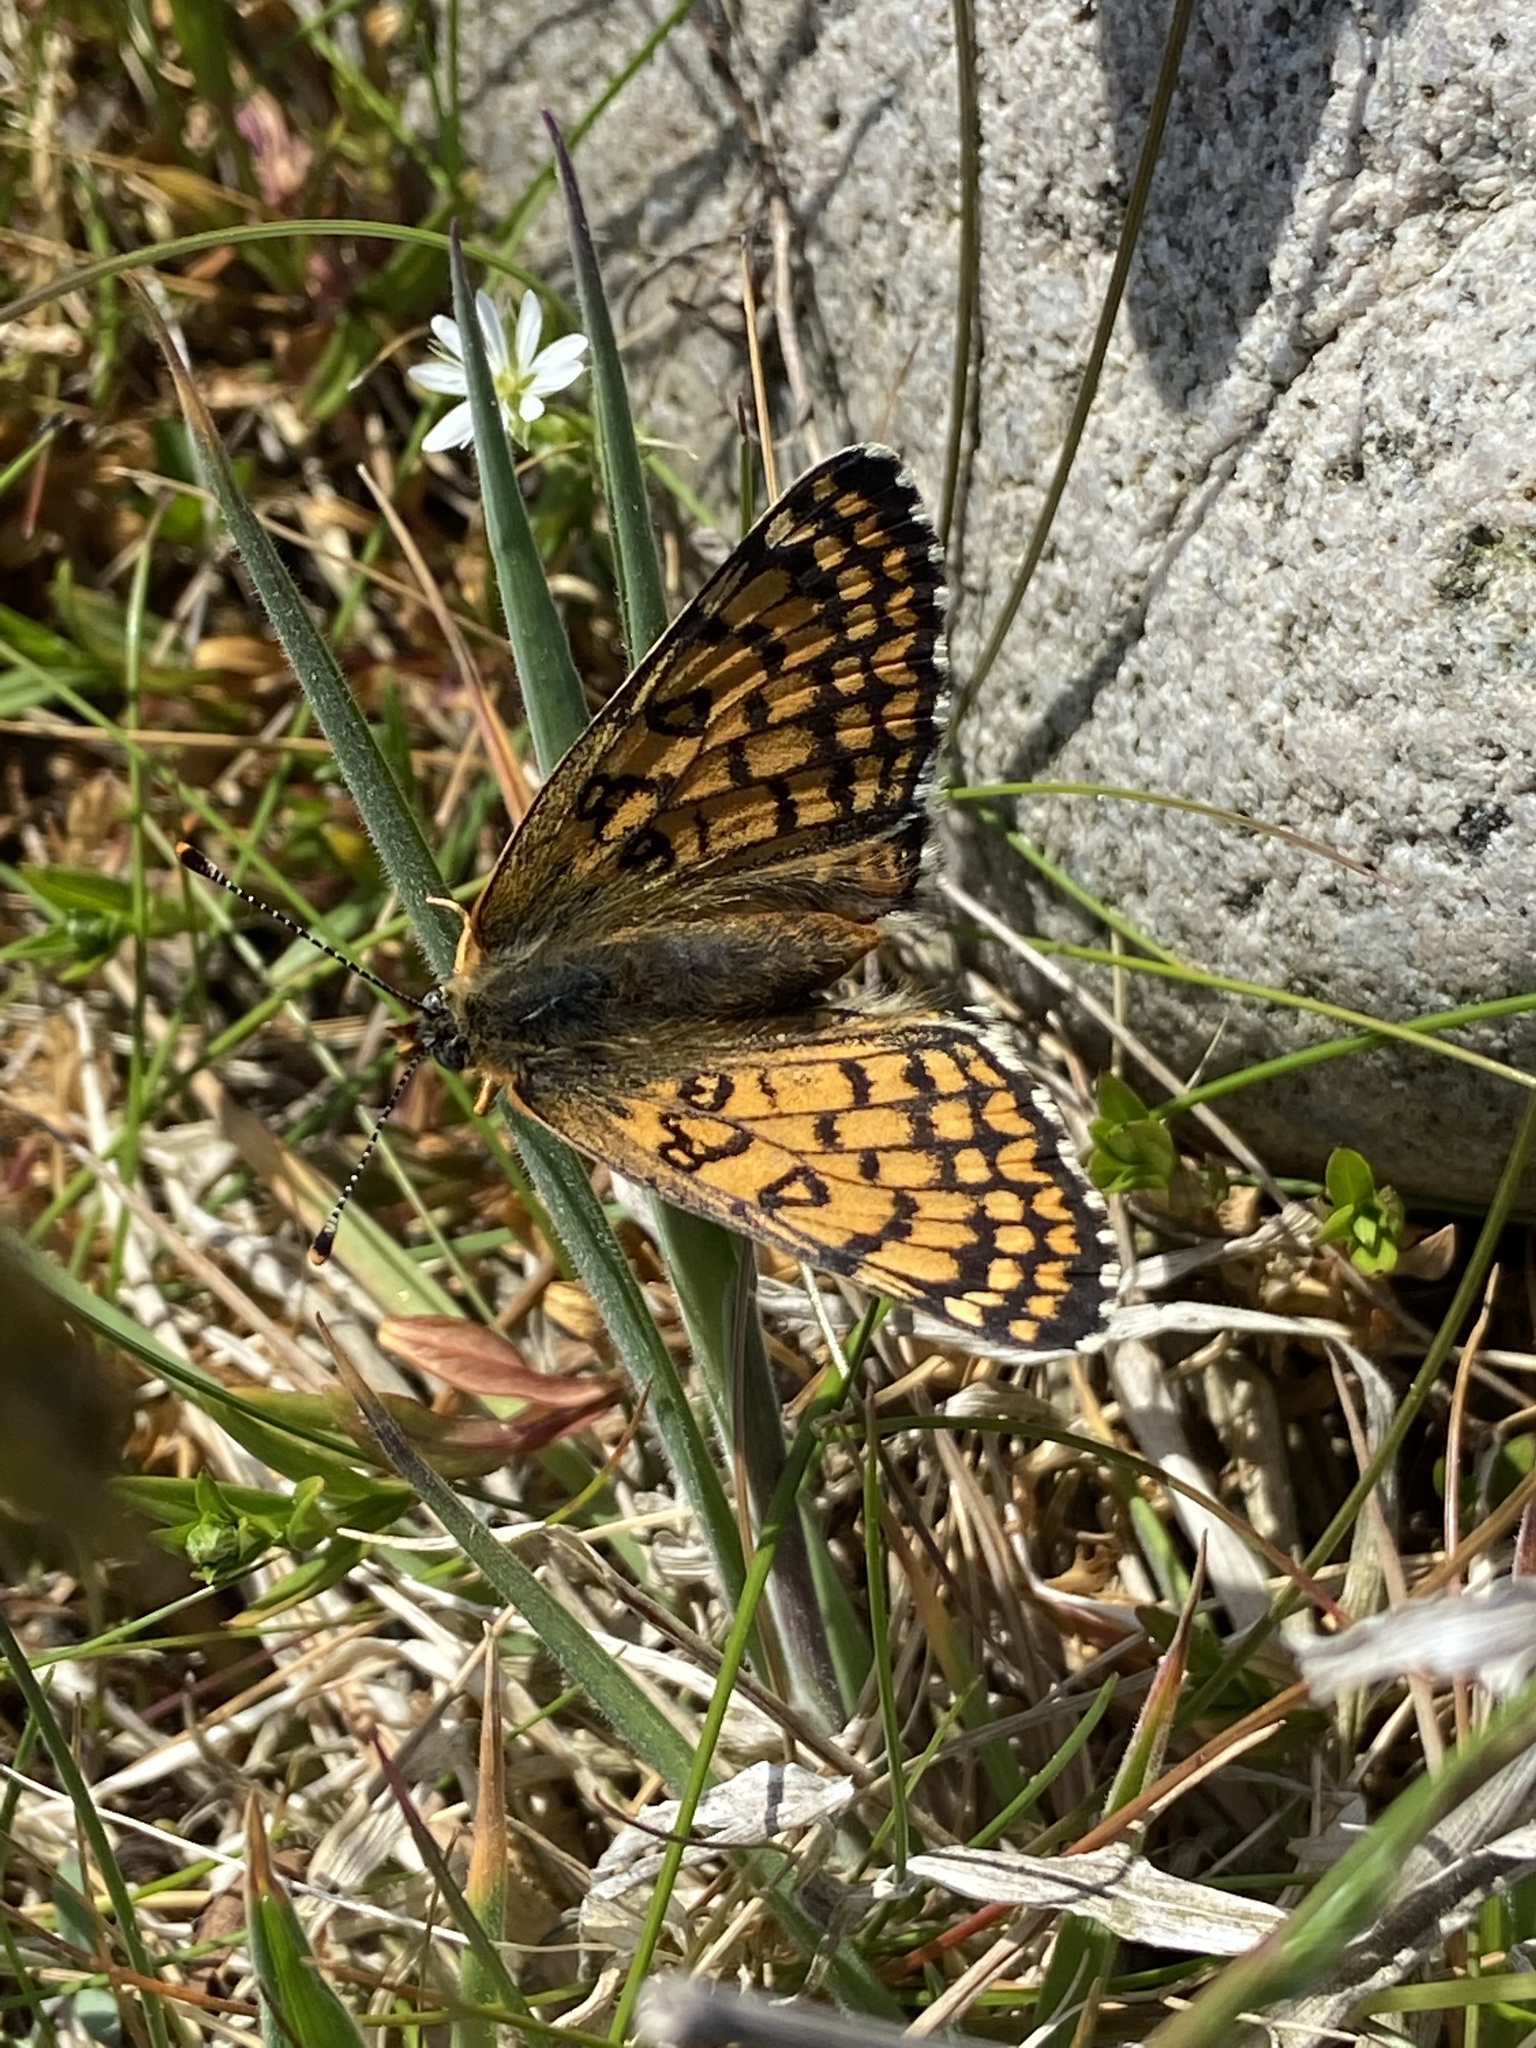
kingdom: Animalia
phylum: Arthropoda
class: Insecta
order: Lepidoptera
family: Nymphalidae
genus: Melitaea
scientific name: Melitaea cinxia
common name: Glanville fritillary
